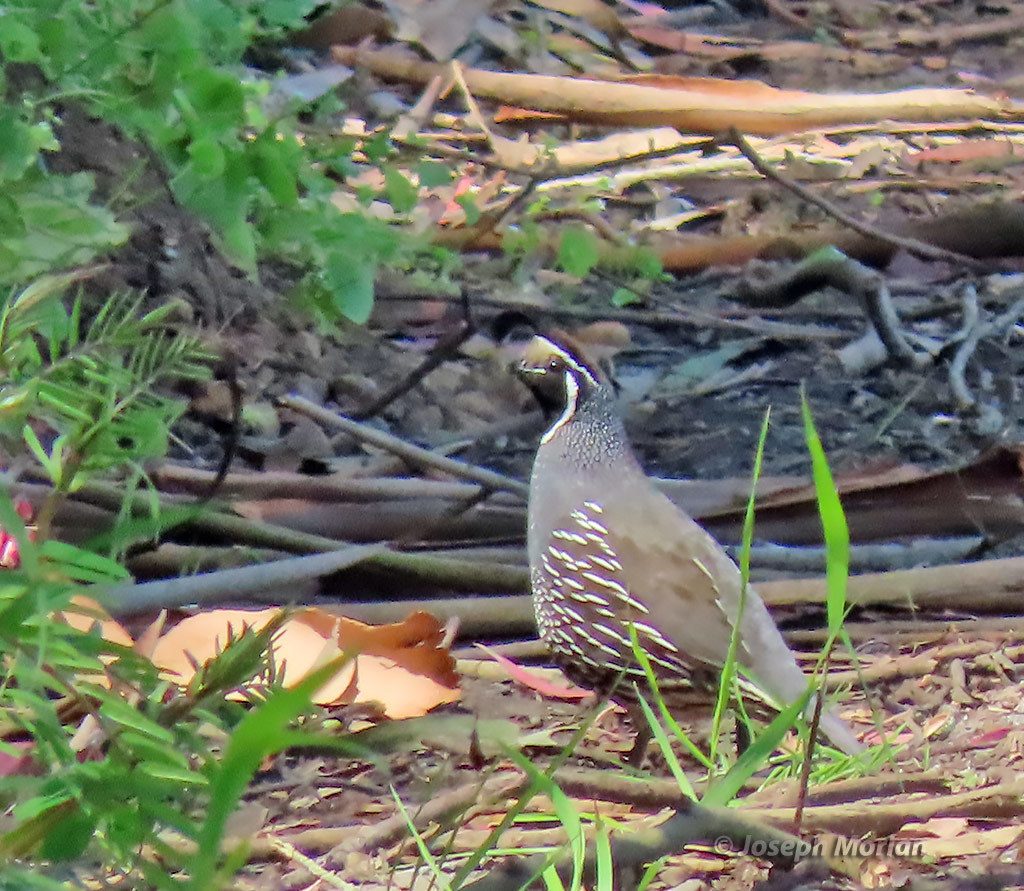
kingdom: Animalia
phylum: Chordata
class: Aves
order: Galliformes
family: Odontophoridae
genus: Callipepla
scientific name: Callipepla californica
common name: California quail
